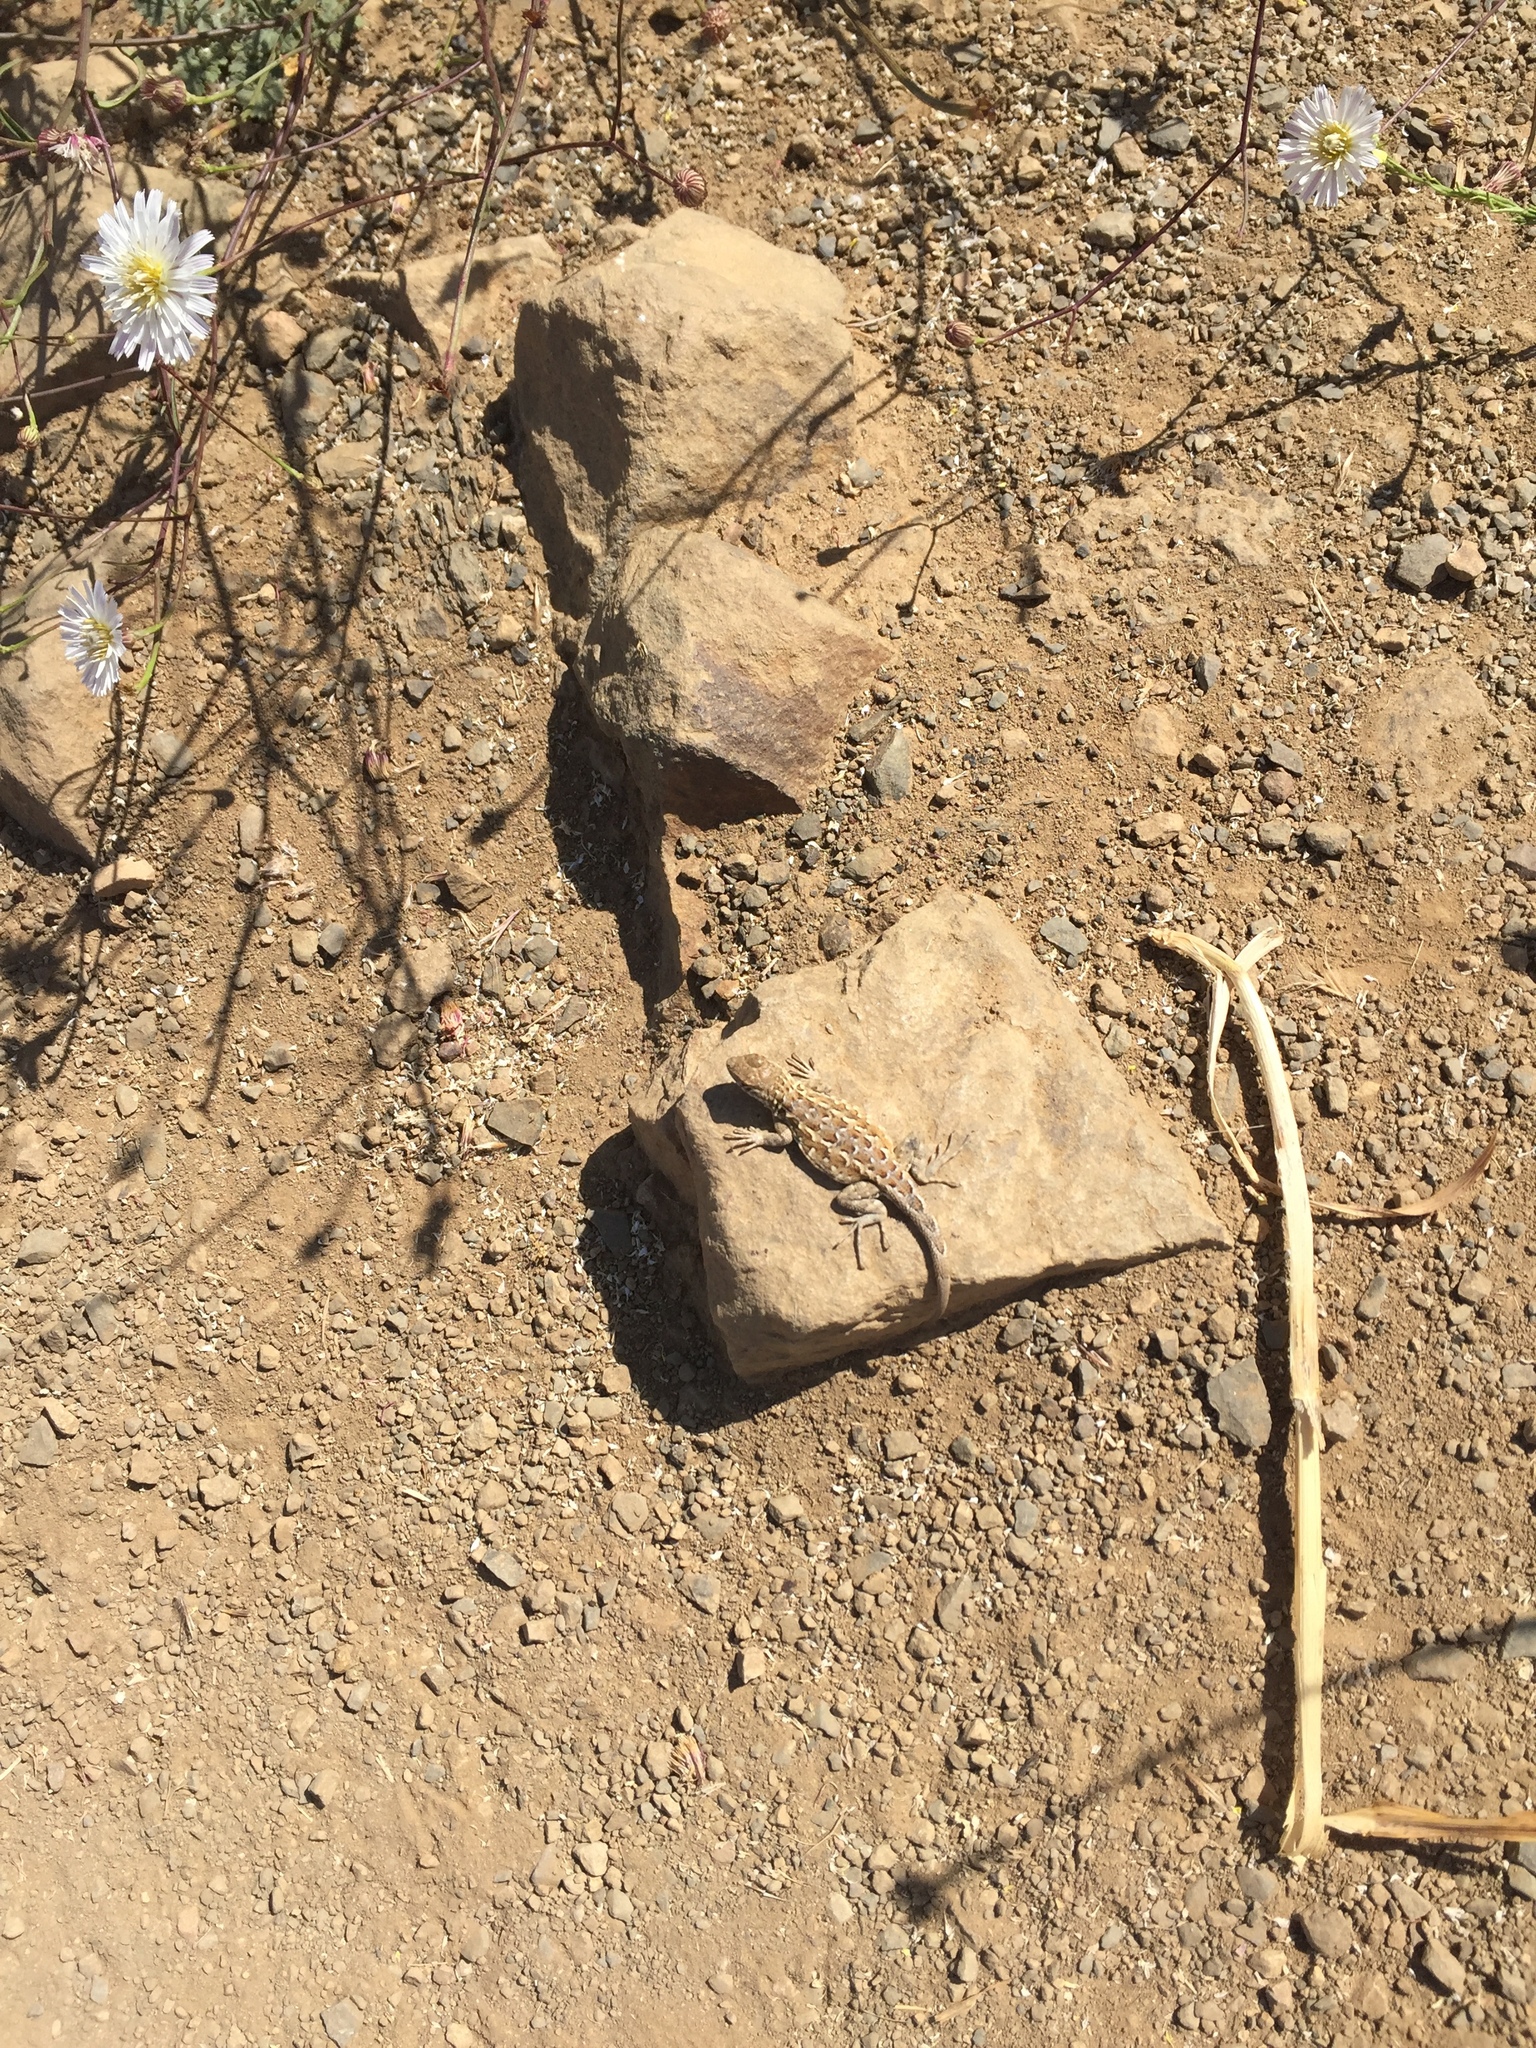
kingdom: Animalia
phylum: Chordata
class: Squamata
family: Phrynosomatidae
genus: Uta
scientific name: Uta stansburiana
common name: Side-blotched lizard
